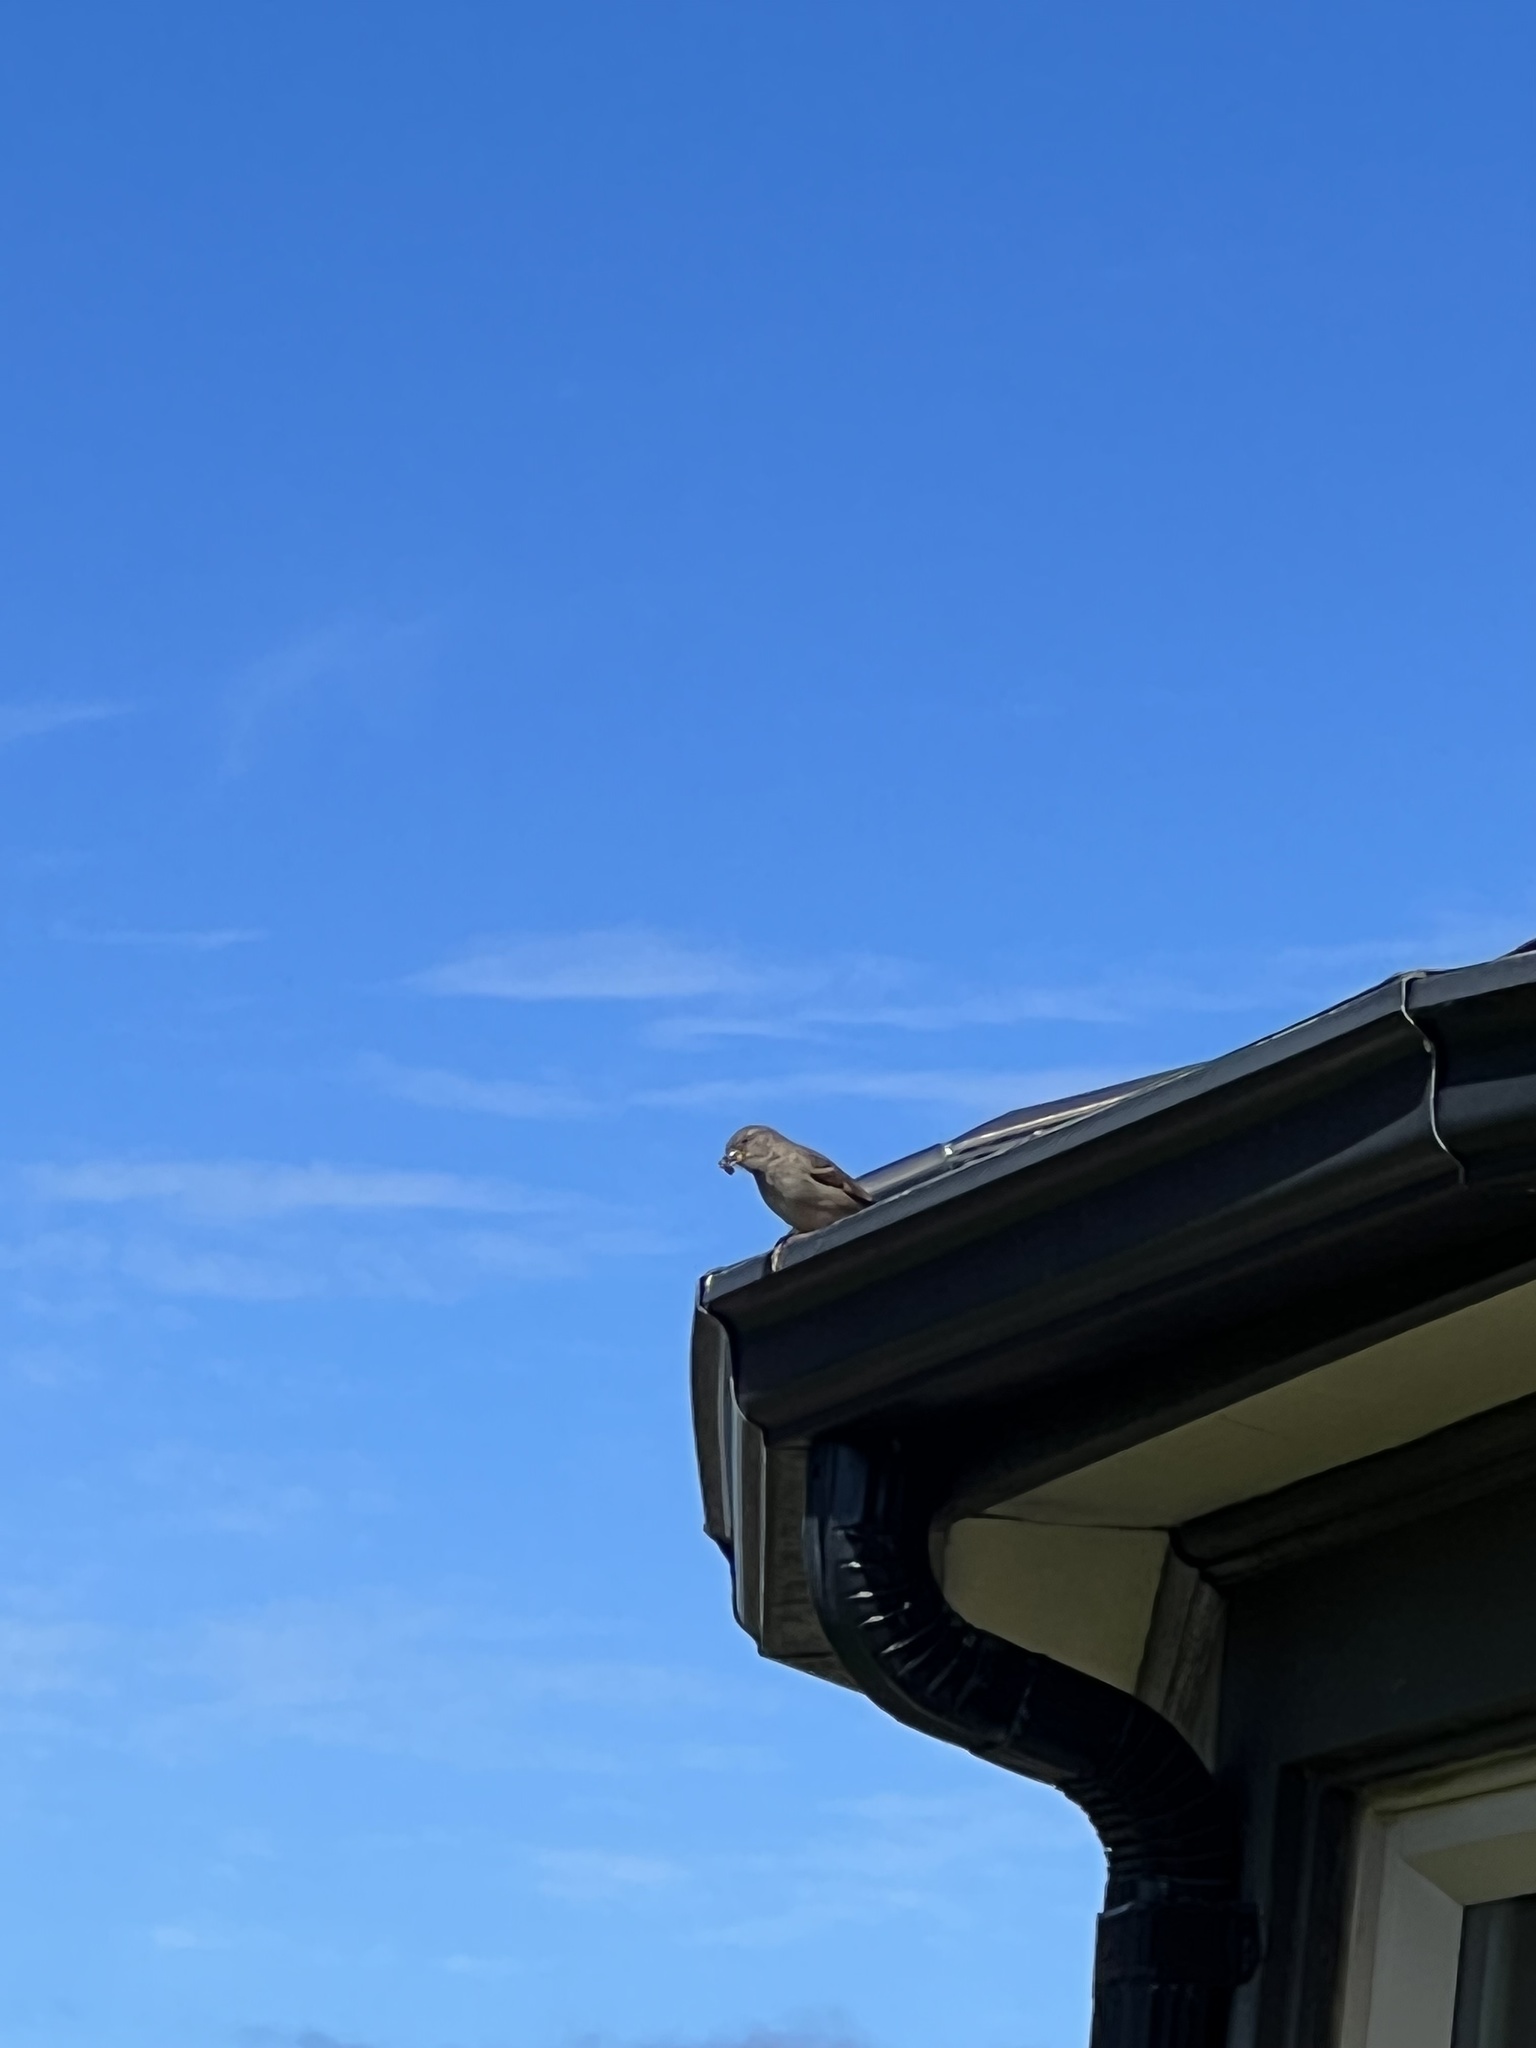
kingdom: Animalia
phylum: Chordata
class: Aves
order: Passeriformes
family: Passeridae
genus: Passer
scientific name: Passer domesticus
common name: House sparrow
